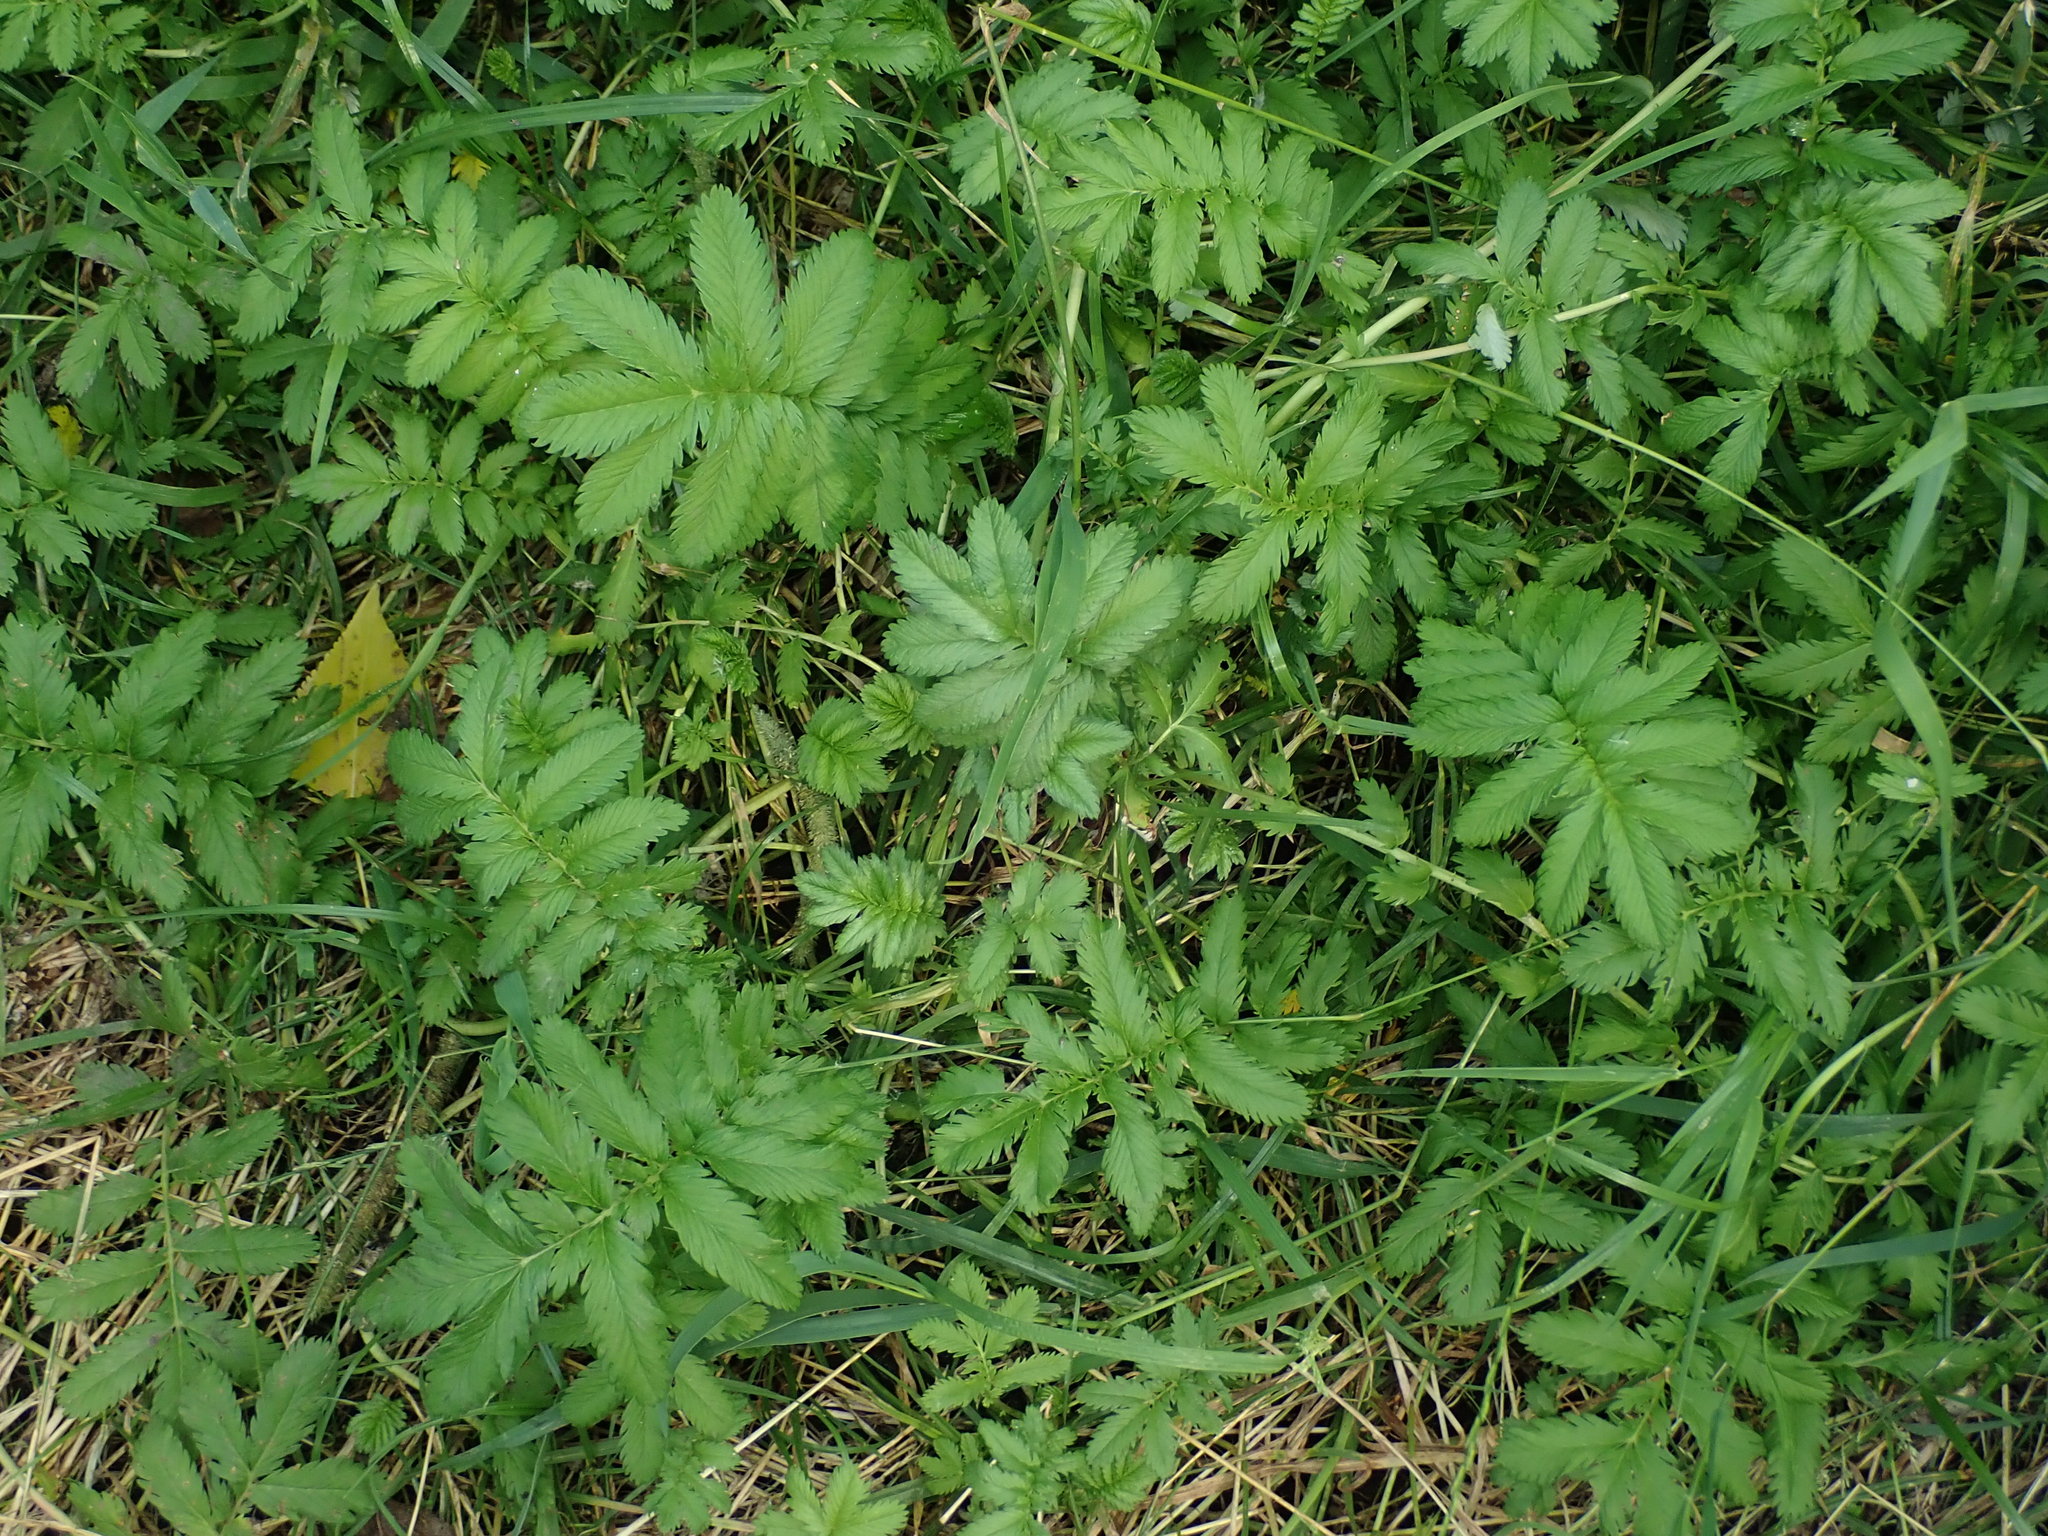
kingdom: Plantae
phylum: Tracheophyta
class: Magnoliopsida
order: Rosales
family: Rosaceae
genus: Argentina
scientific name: Argentina anserina
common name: Common silverweed
